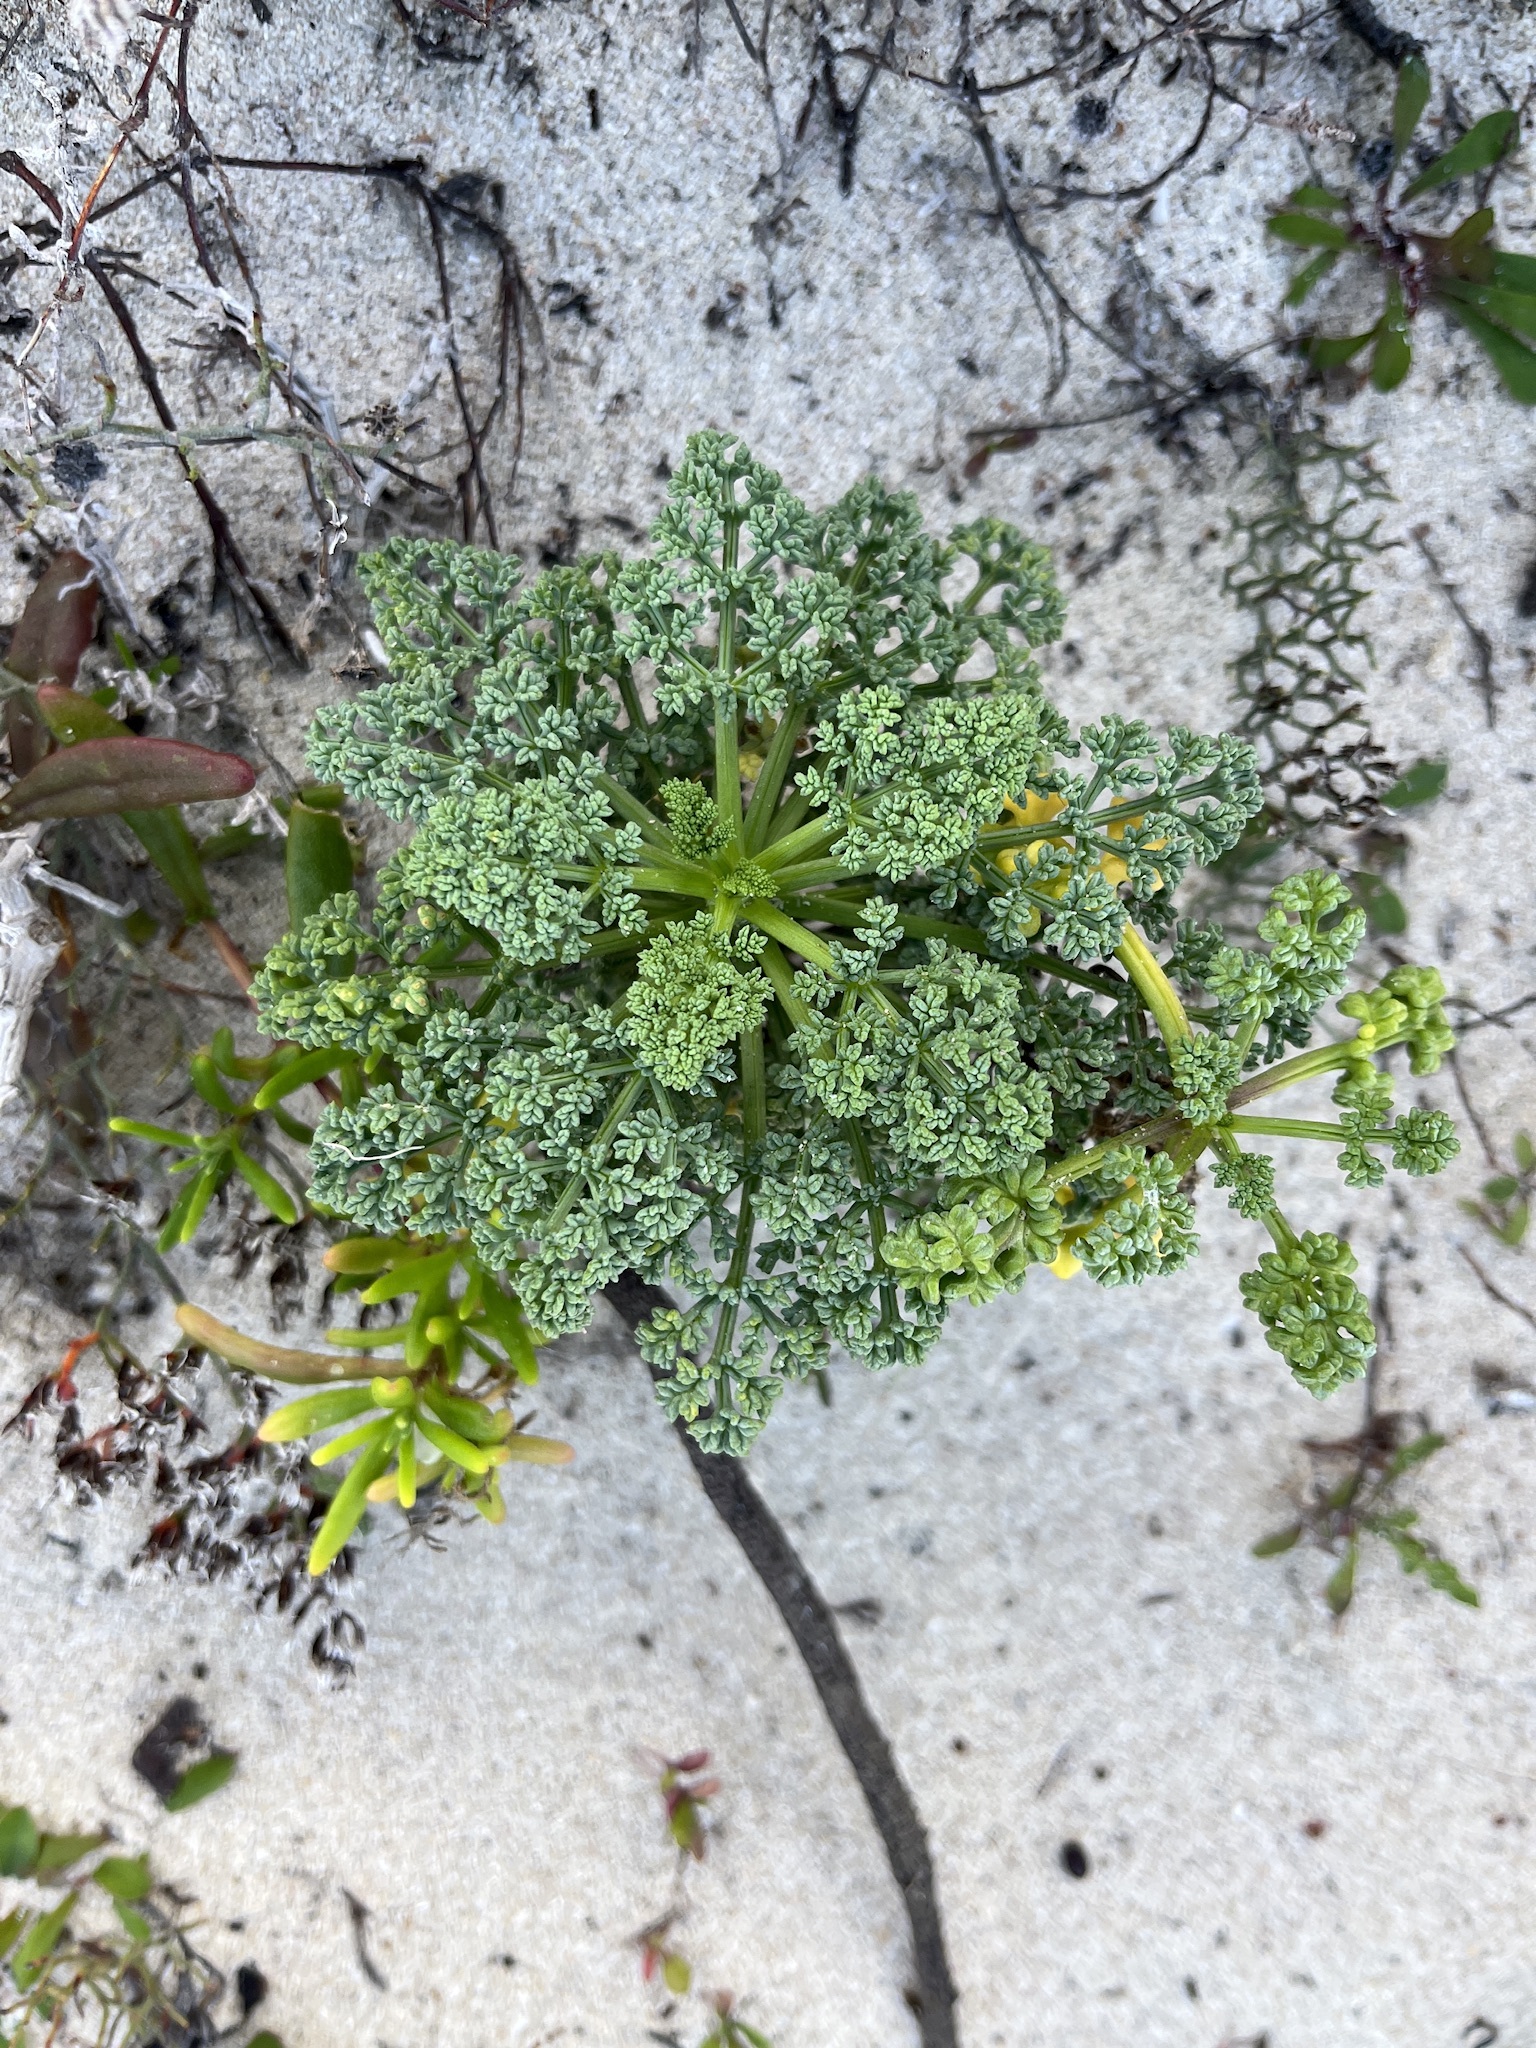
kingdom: Plantae
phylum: Tracheophyta
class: Magnoliopsida
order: Apiales
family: Apiaceae
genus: Dasispermum
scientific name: Dasispermum suffruticosum
